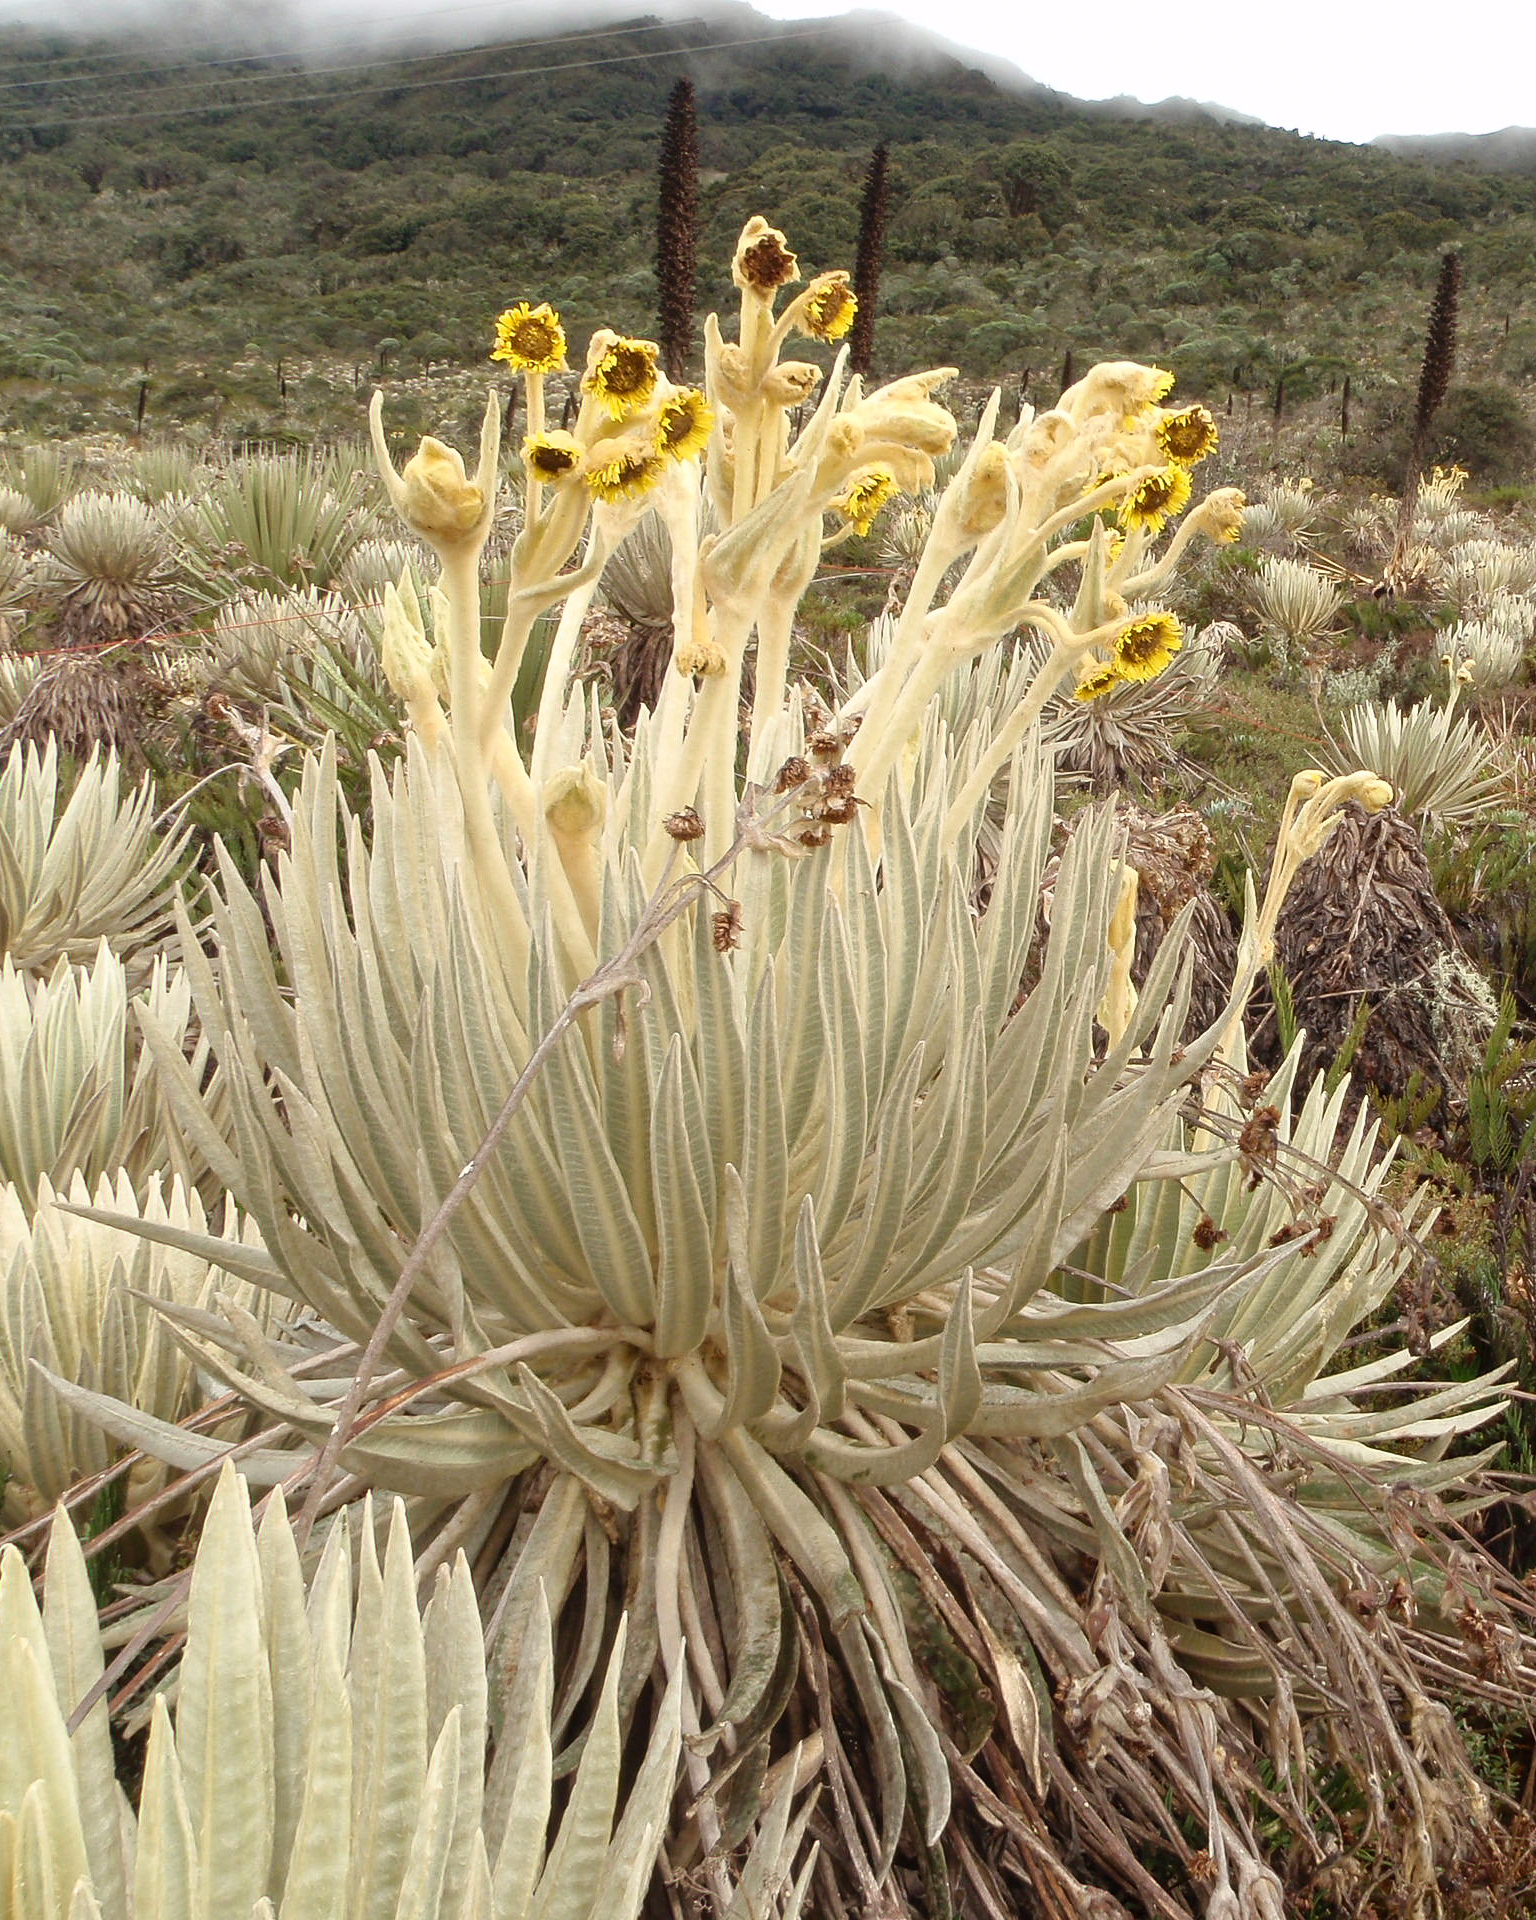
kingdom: Plantae
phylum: Tracheophyta
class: Magnoliopsida
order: Asterales
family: Asteraceae
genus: Espeletia
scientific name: Espeletia killipii
